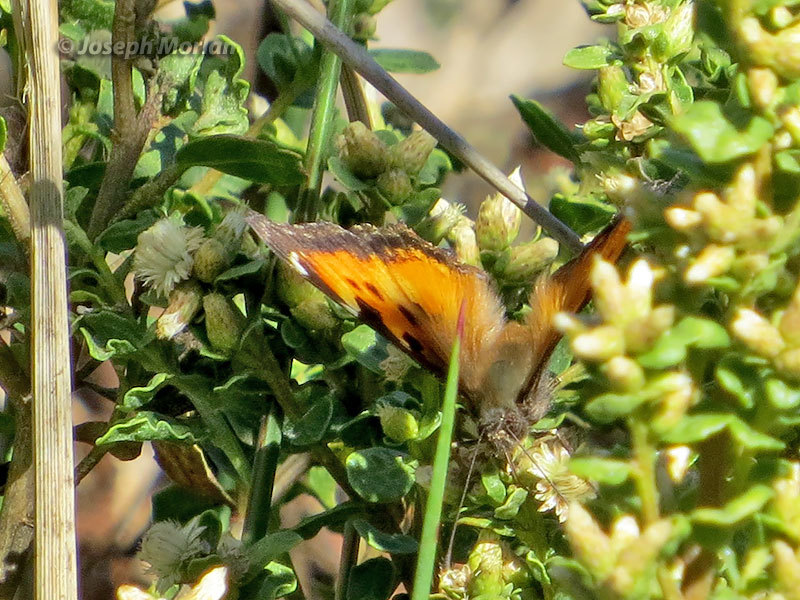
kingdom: Animalia
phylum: Arthropoda
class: Insecta
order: Lepidoptera
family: Nymphalidae
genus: Nymphalis
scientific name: Nymphalis californica
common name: California tortoiseshell
